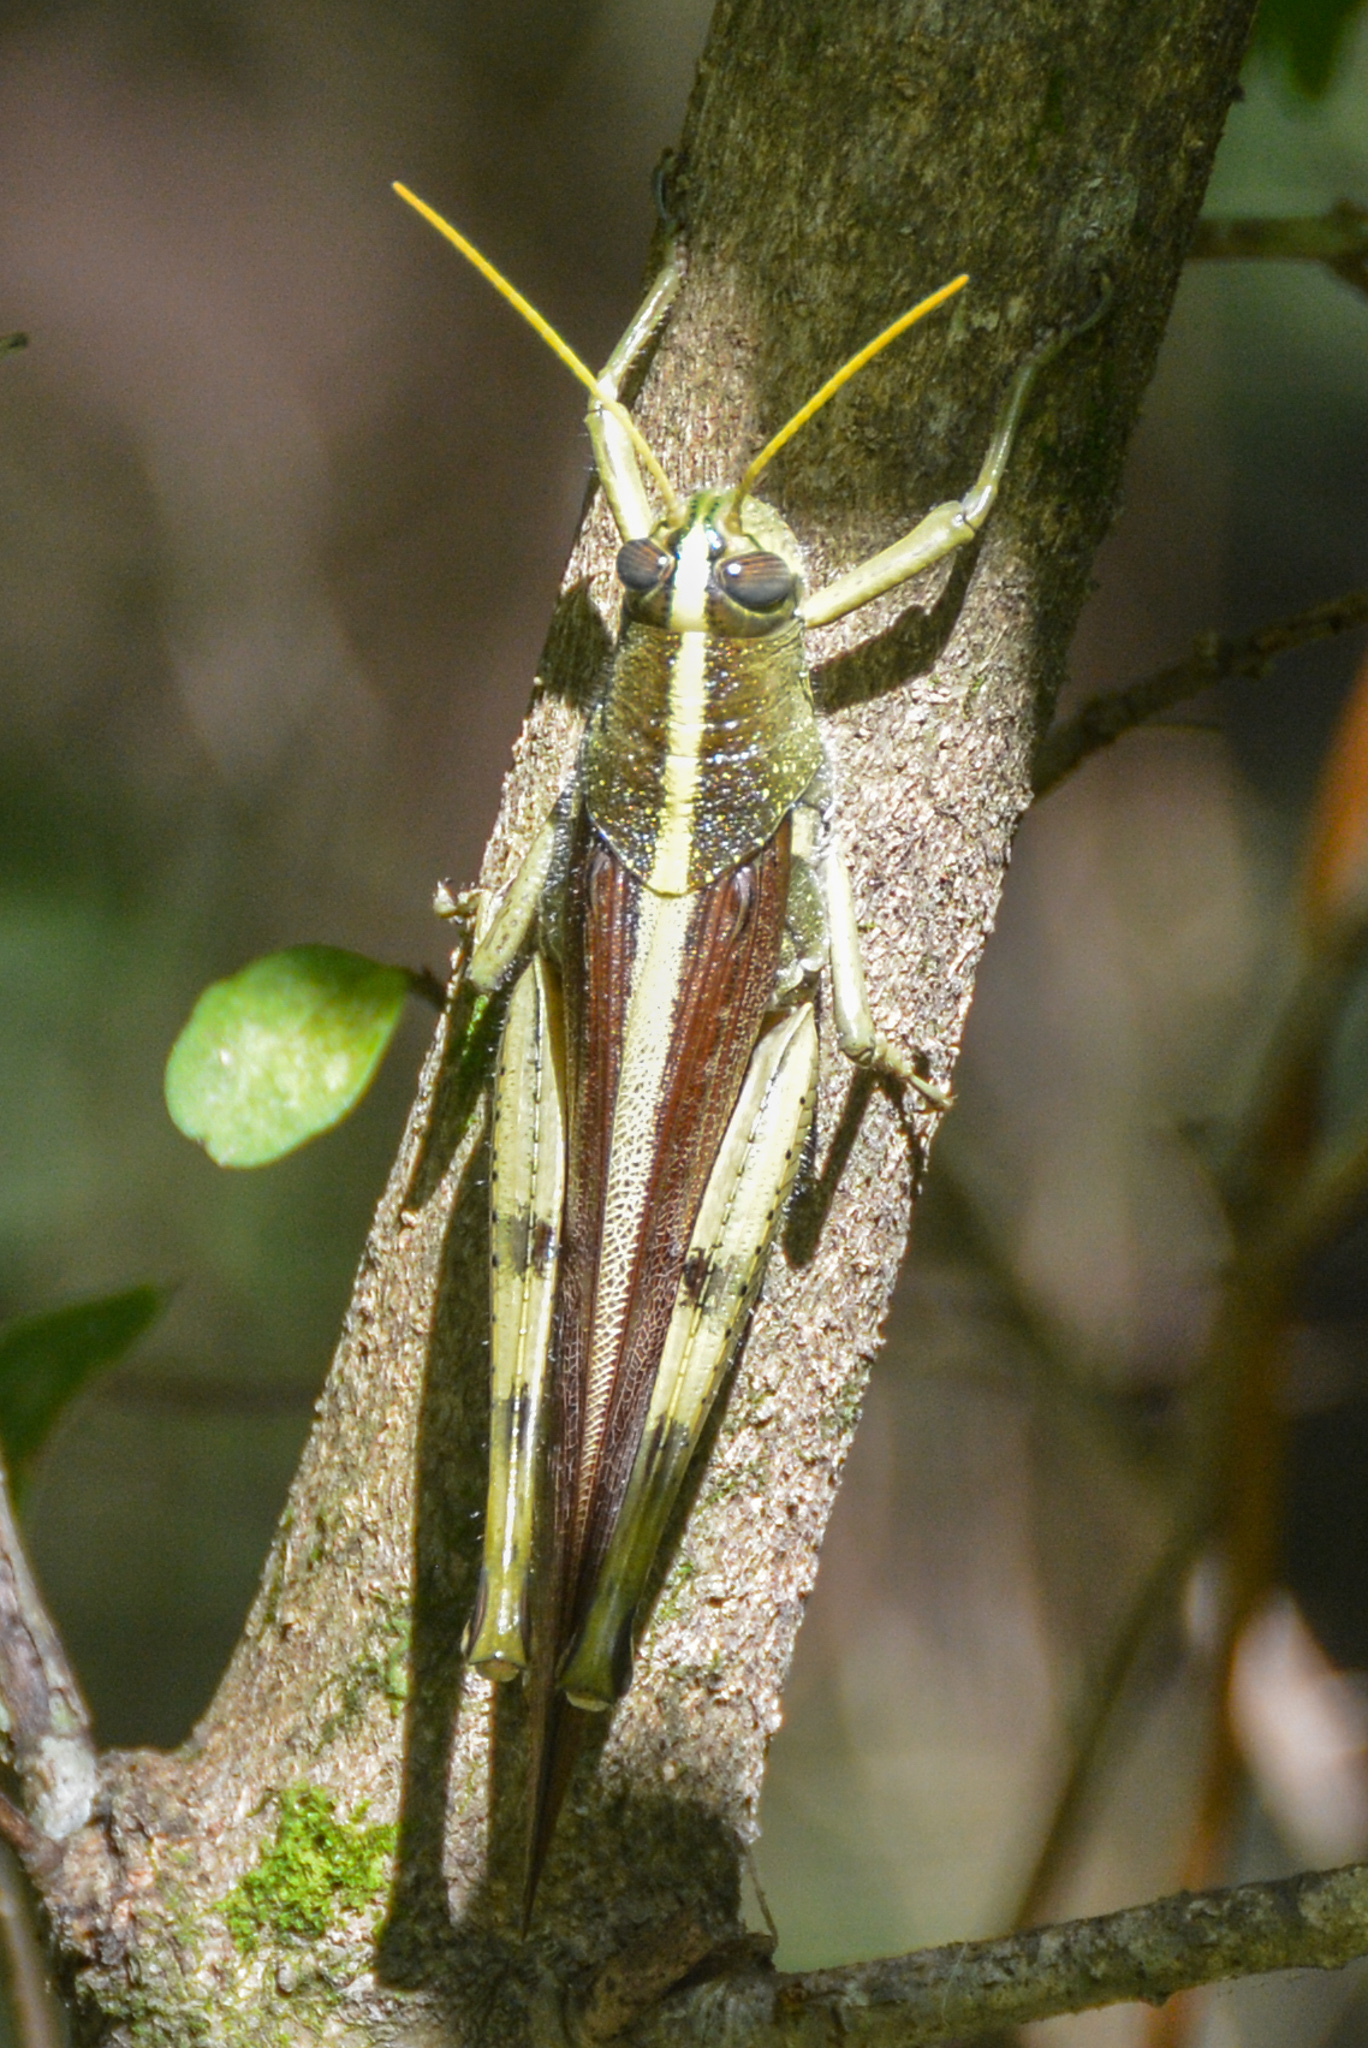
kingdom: Animalia
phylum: Arthropoda
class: Insecta
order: Orthoptera
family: Acrididae
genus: Schistocerca
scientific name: Schistocerca obscura
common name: Obscure bird grasshopper
